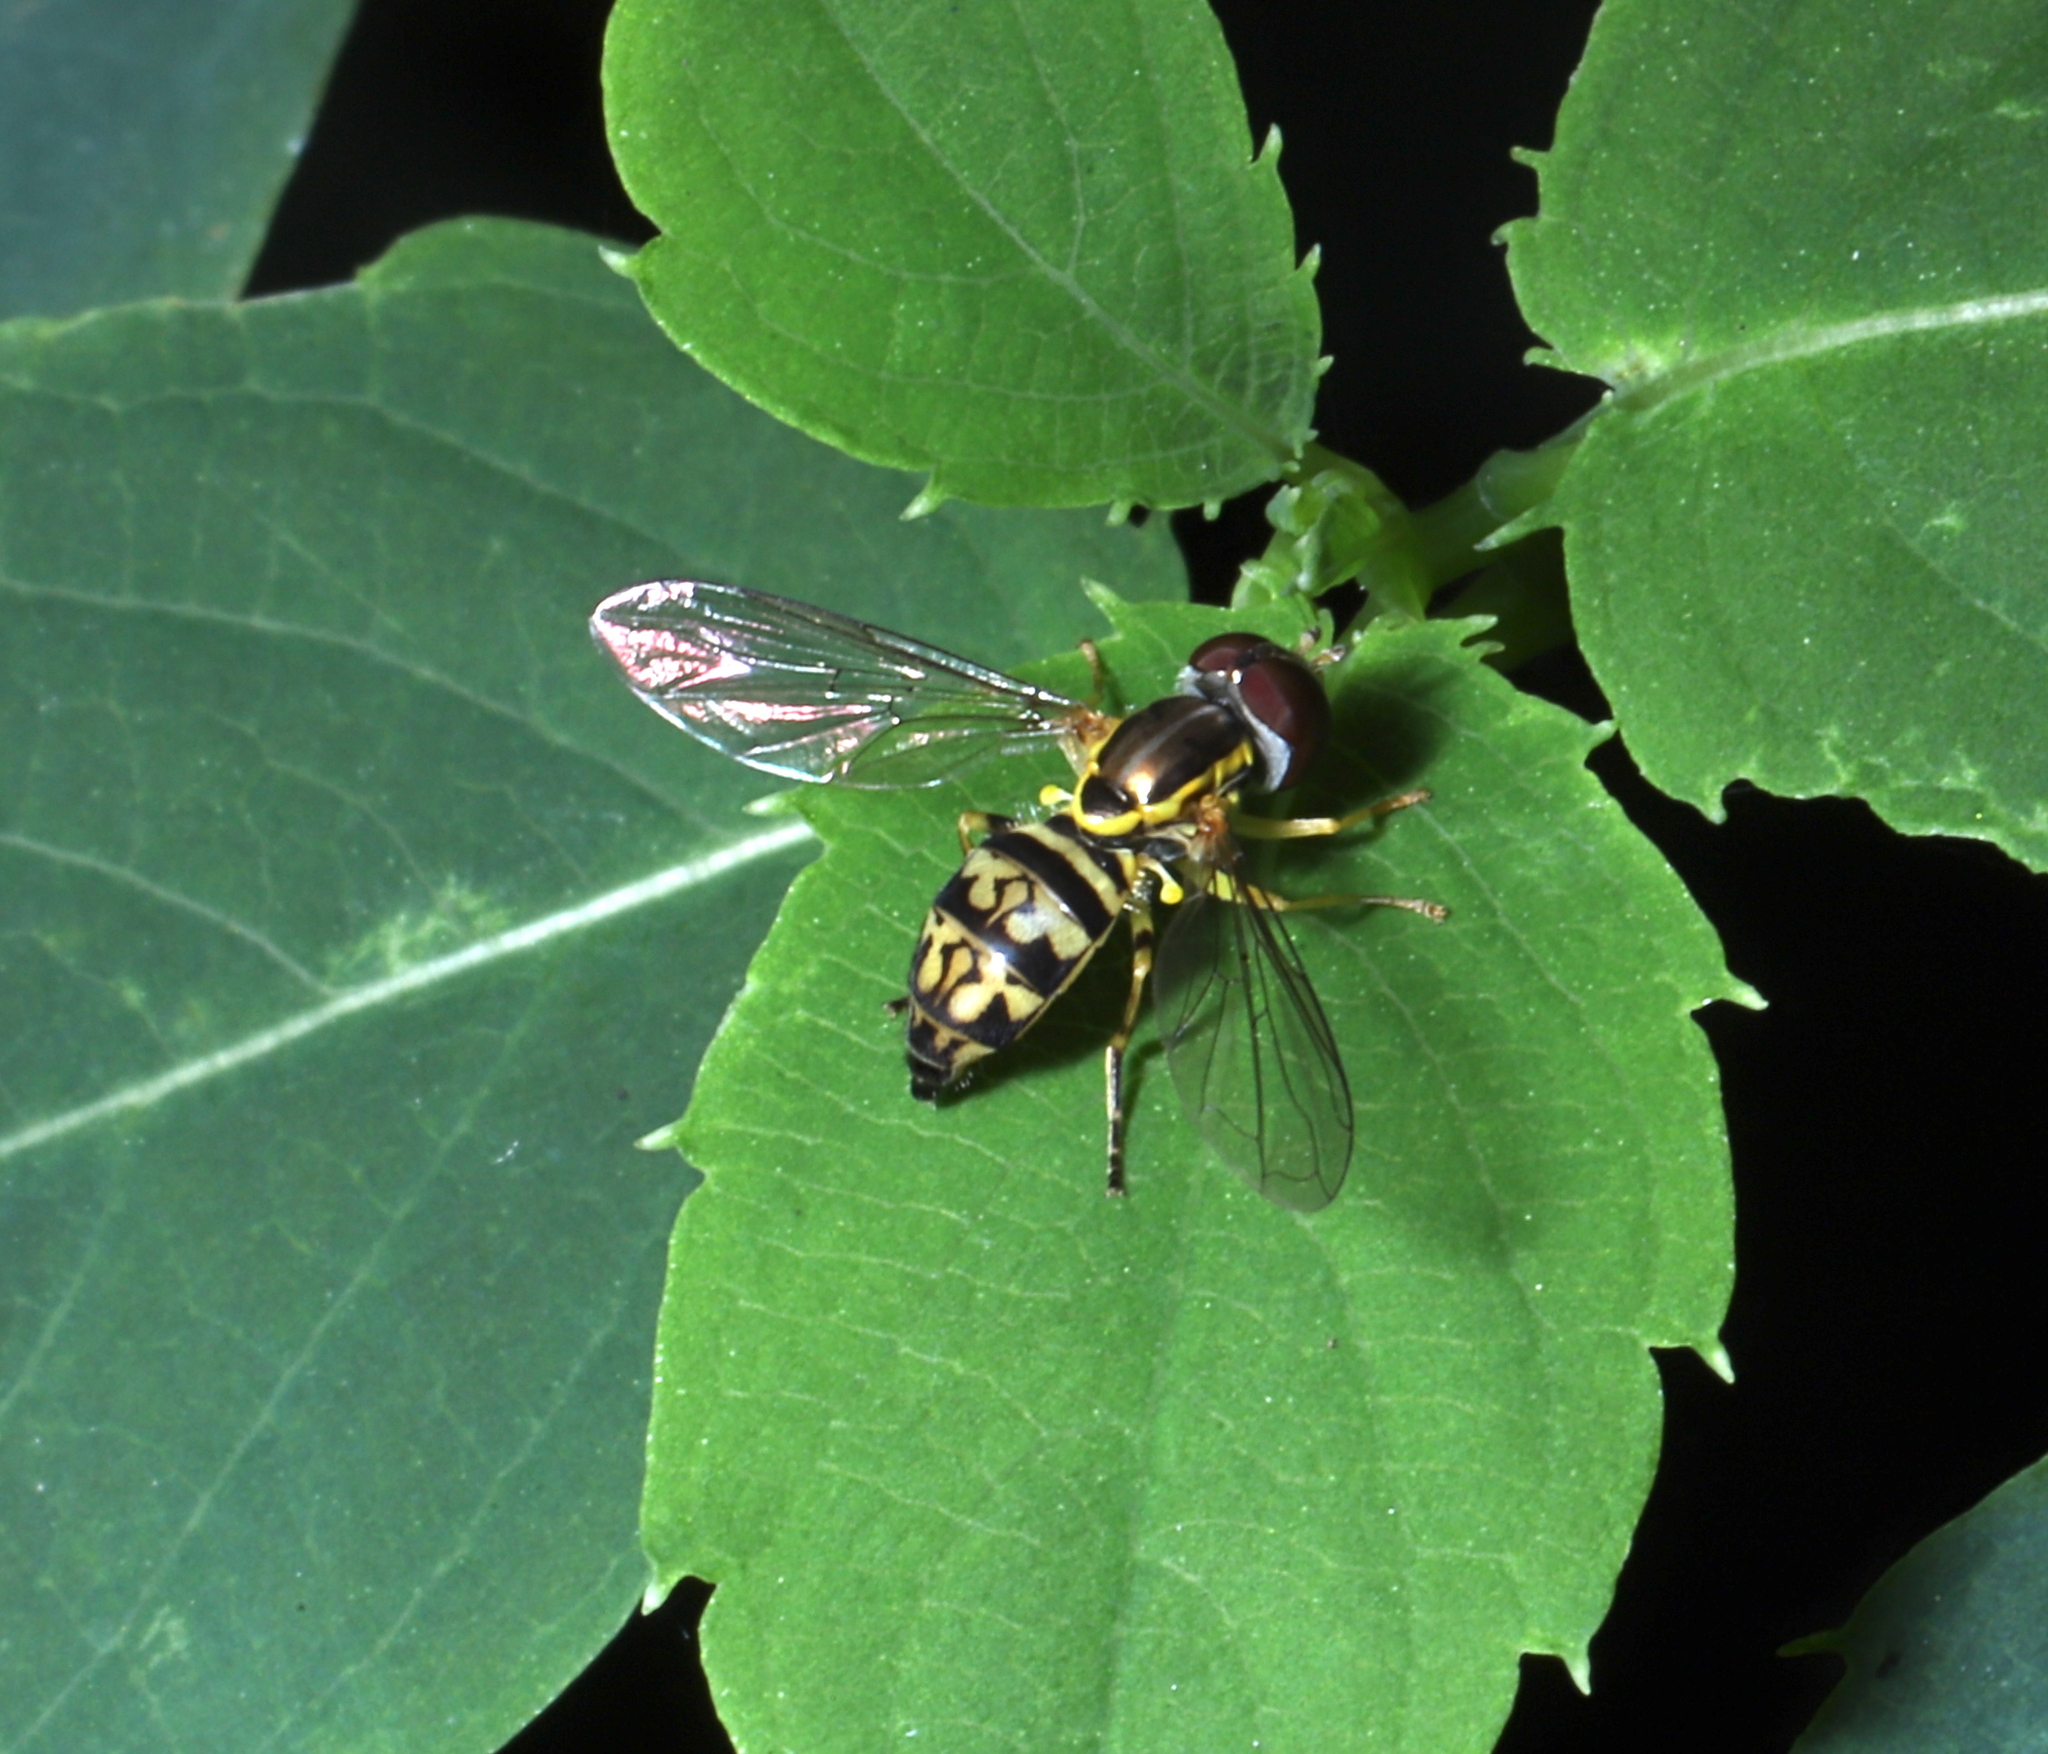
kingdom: Animalia
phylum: Arthropoda
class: Insecta
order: Diptera
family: Syrphidae
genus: Toxomerus
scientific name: Toxomerus geminatus
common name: Eastern calligrapher
